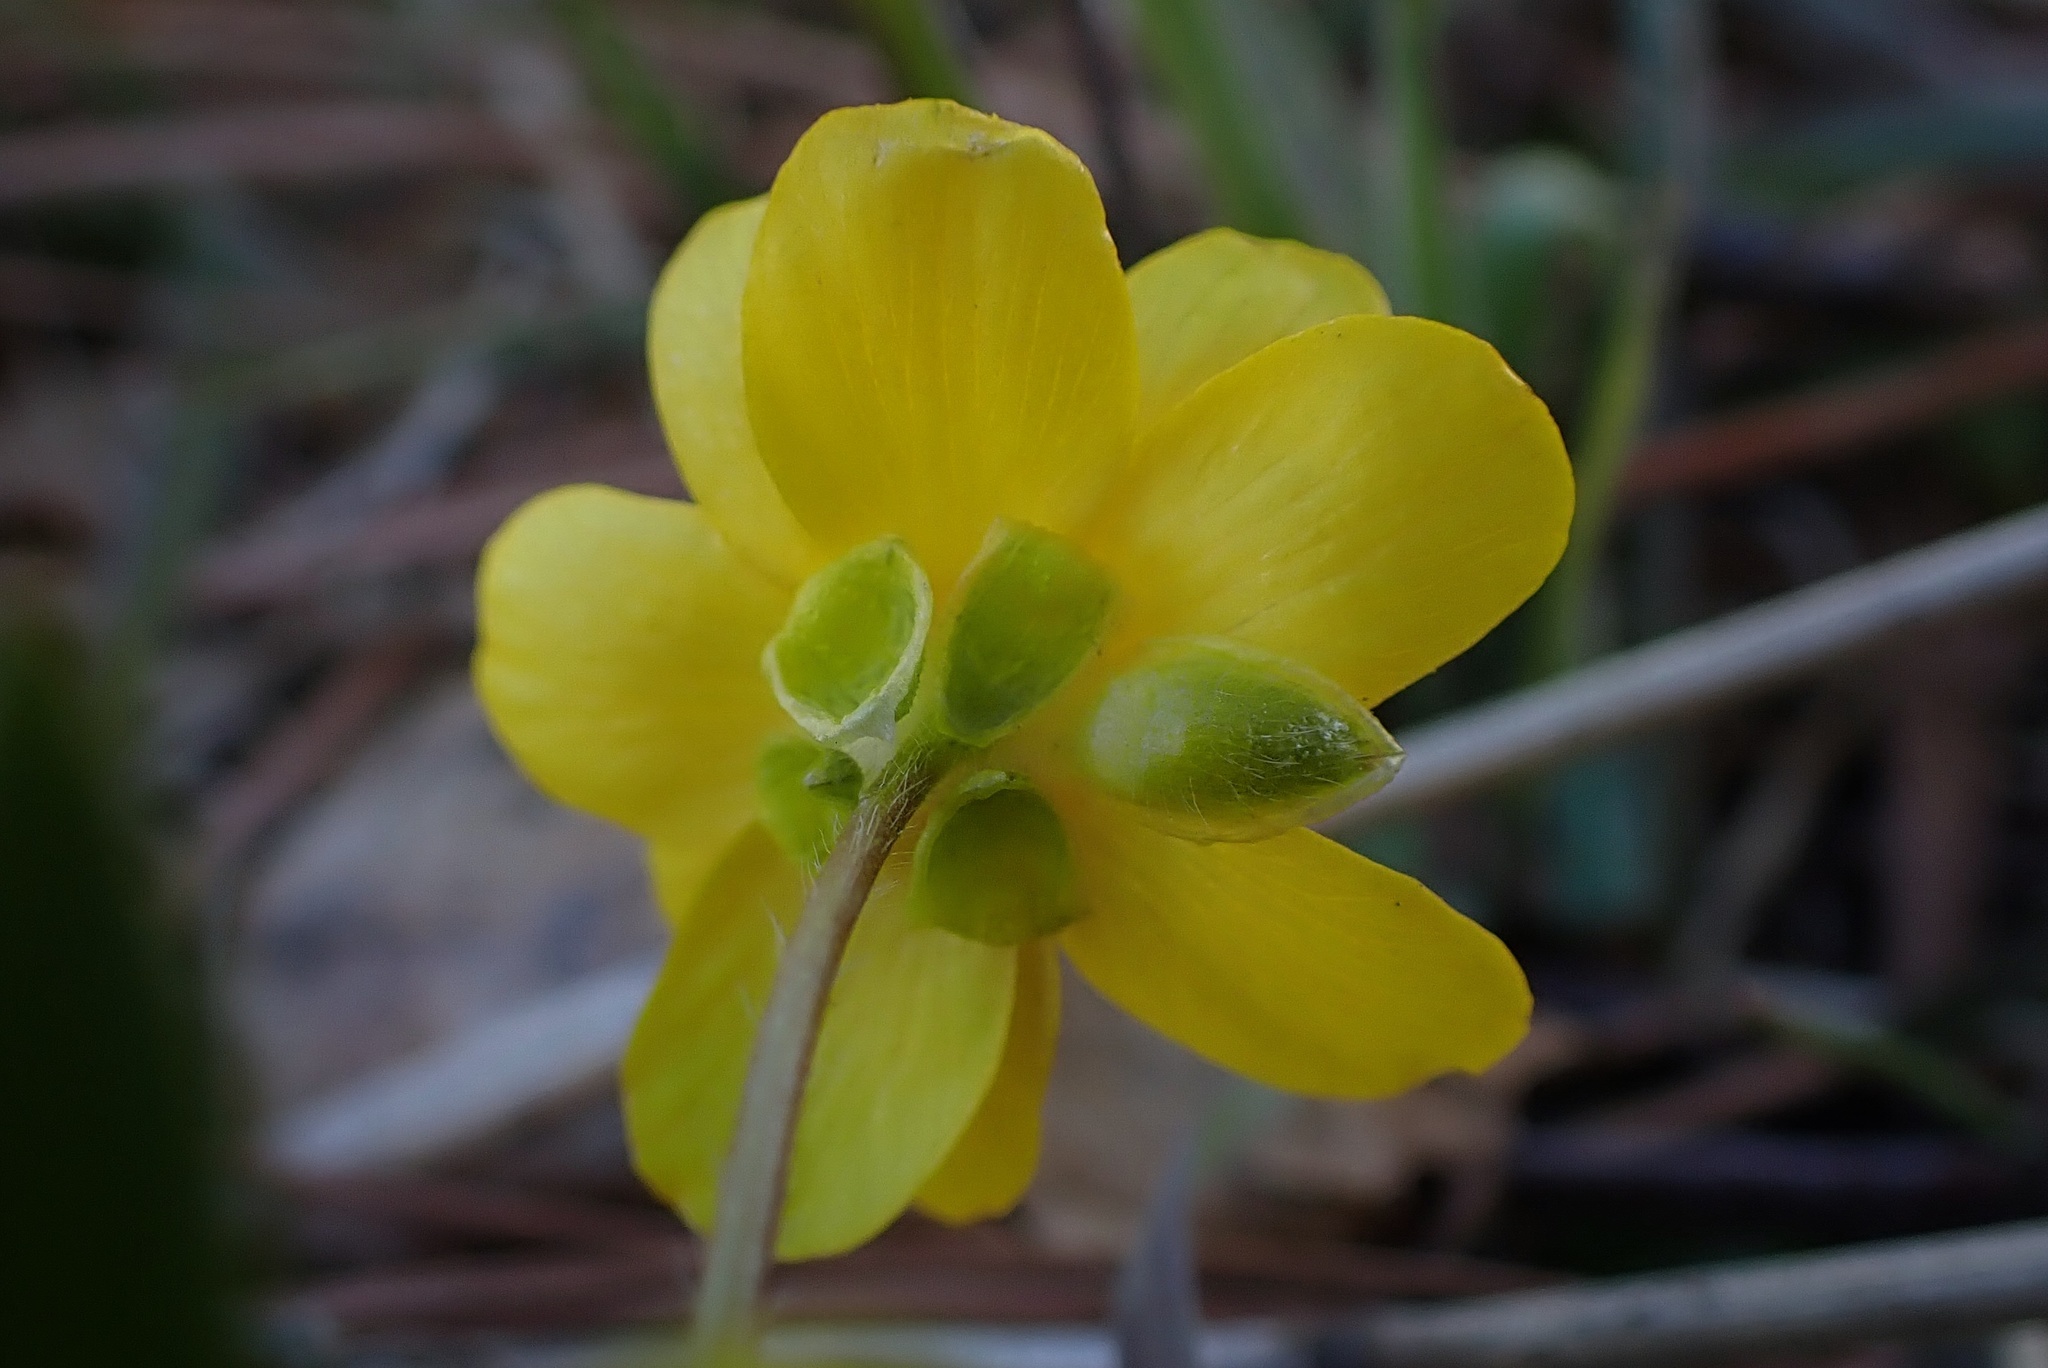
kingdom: Plantae
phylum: Tracheophyta
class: Magnoliopsida
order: Ranunculales
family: Ranunculaceae
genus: Ranunculus
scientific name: Ranunculus californicus
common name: California buttercup
